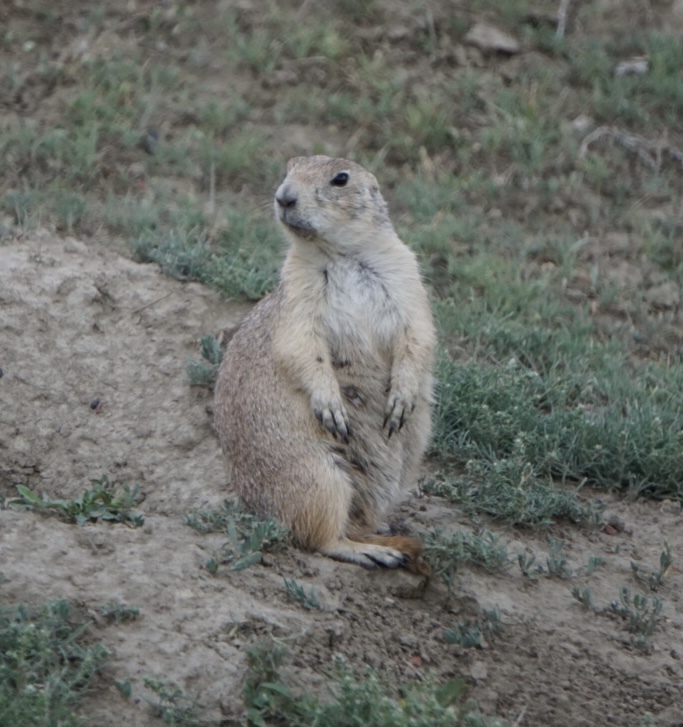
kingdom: Animalia
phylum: Chordata
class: Mammalia
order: Rodentia
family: Sciuridae
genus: Cynomys
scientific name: Cynomys ludovicianus
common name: Black-tailed prairie dog
